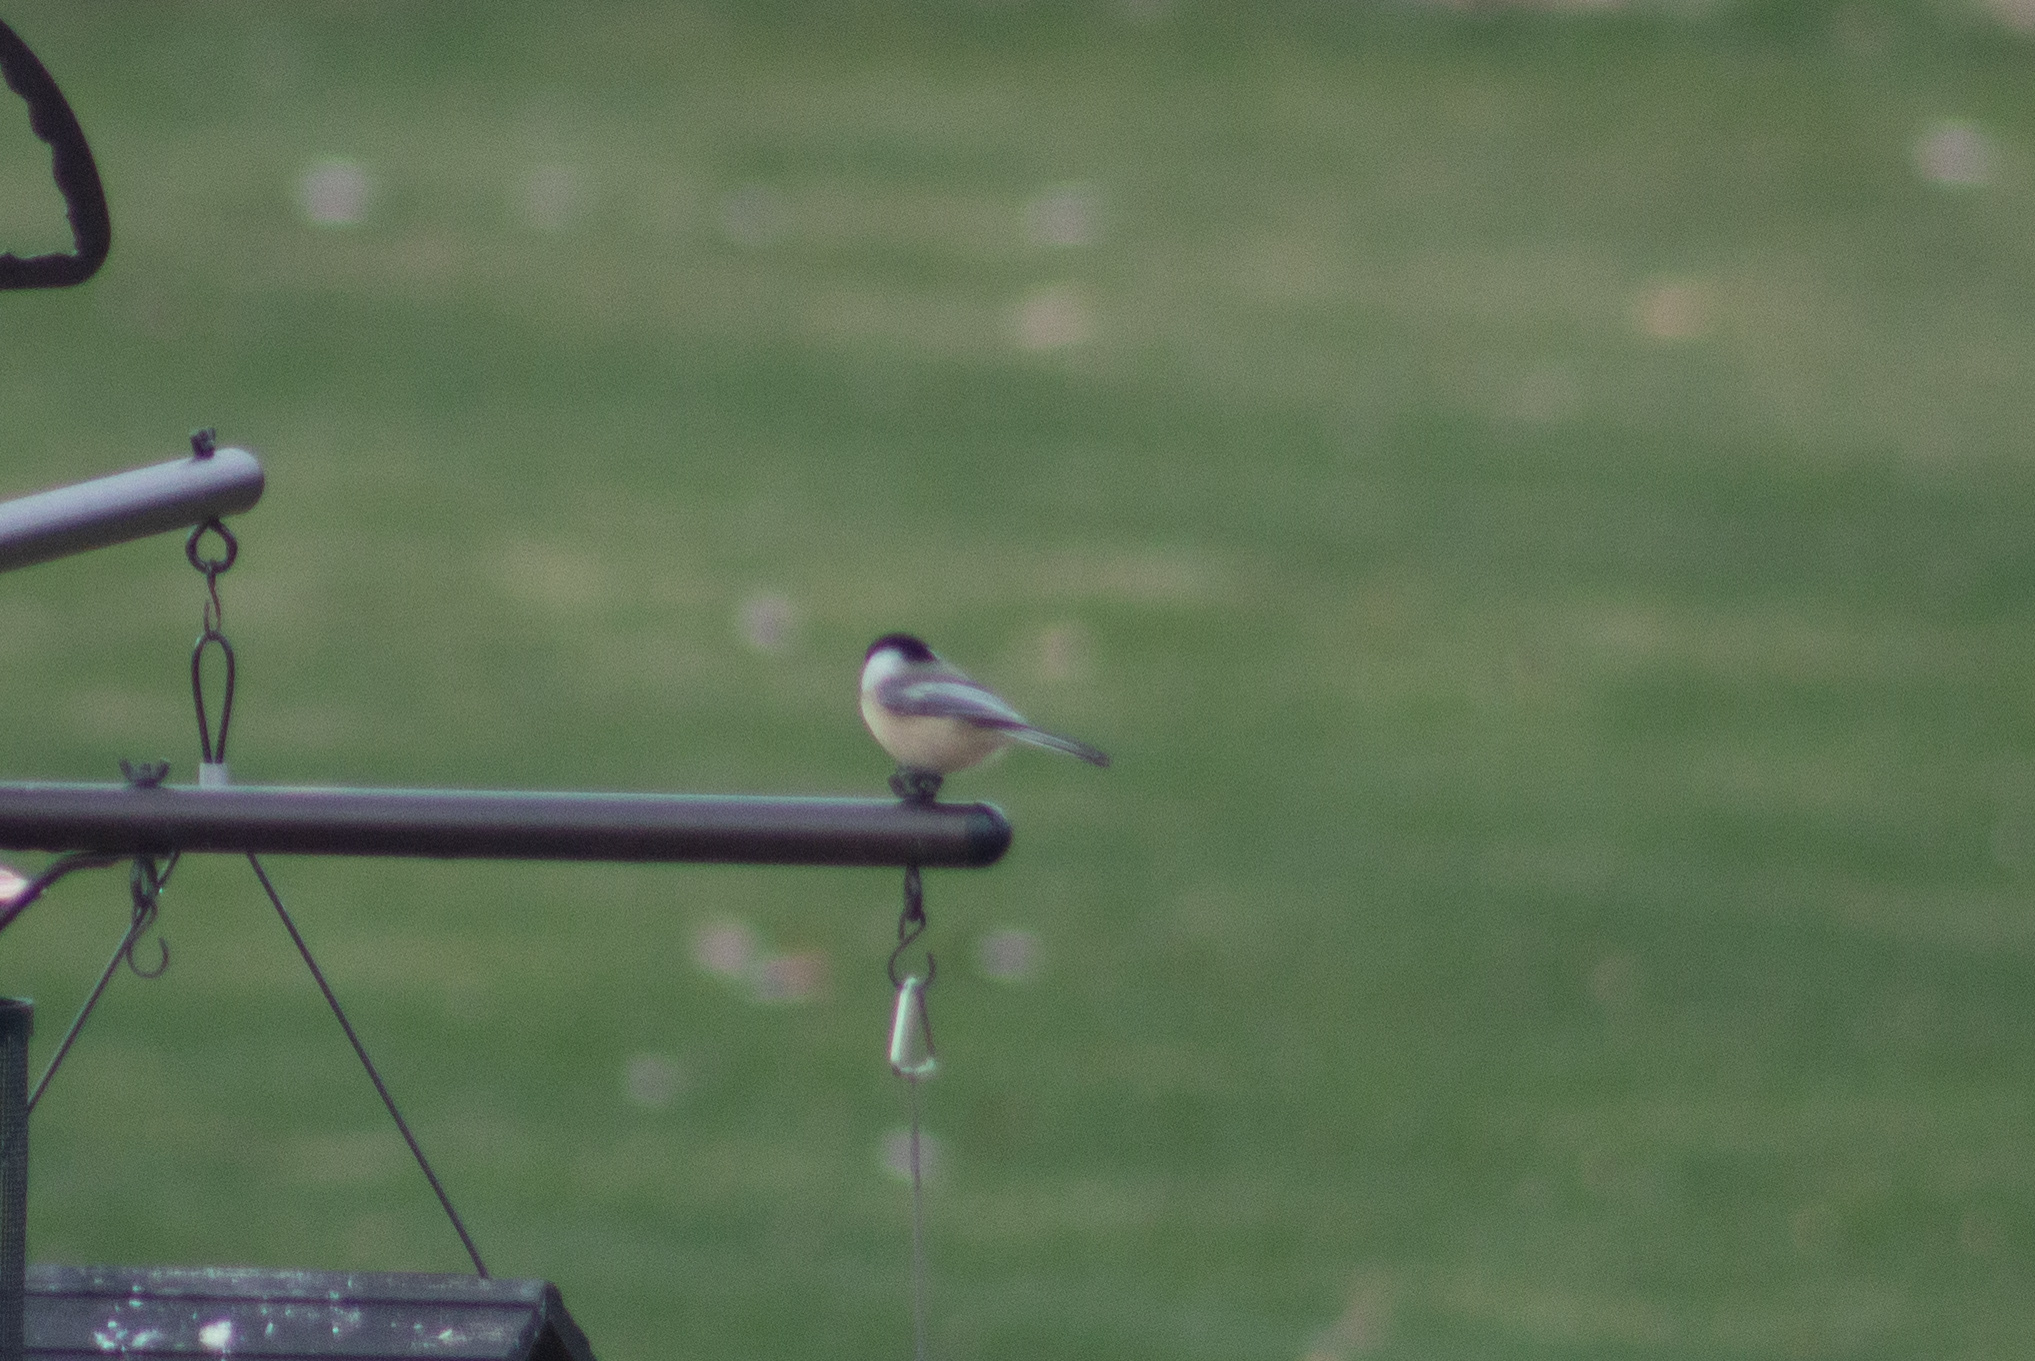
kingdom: Animalia
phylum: Chordata
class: Aves
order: Passeriformes
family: Paridae
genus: Poecile
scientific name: Poecile atricapillus
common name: Black-capped chickadee
